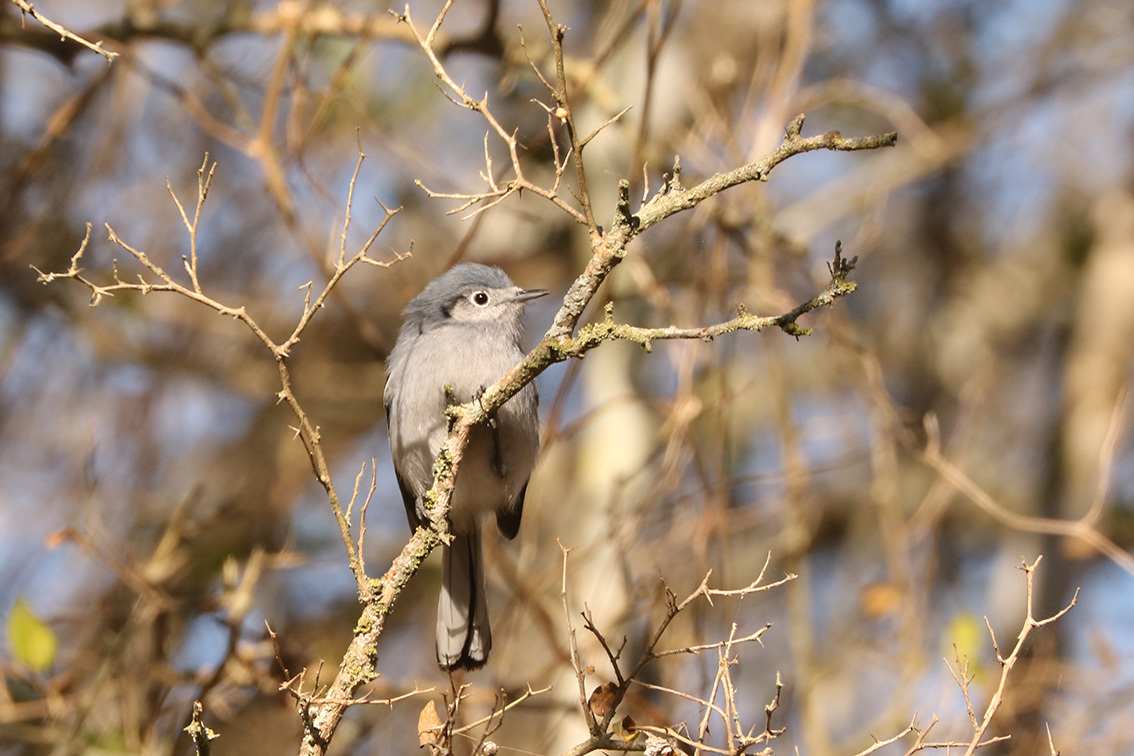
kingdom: Animalia
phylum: Chordata
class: Aves
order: Passeriformes
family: Polioptilidae
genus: Polioptila
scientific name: Polioptila dumicola
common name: Masked gnatcatcher
